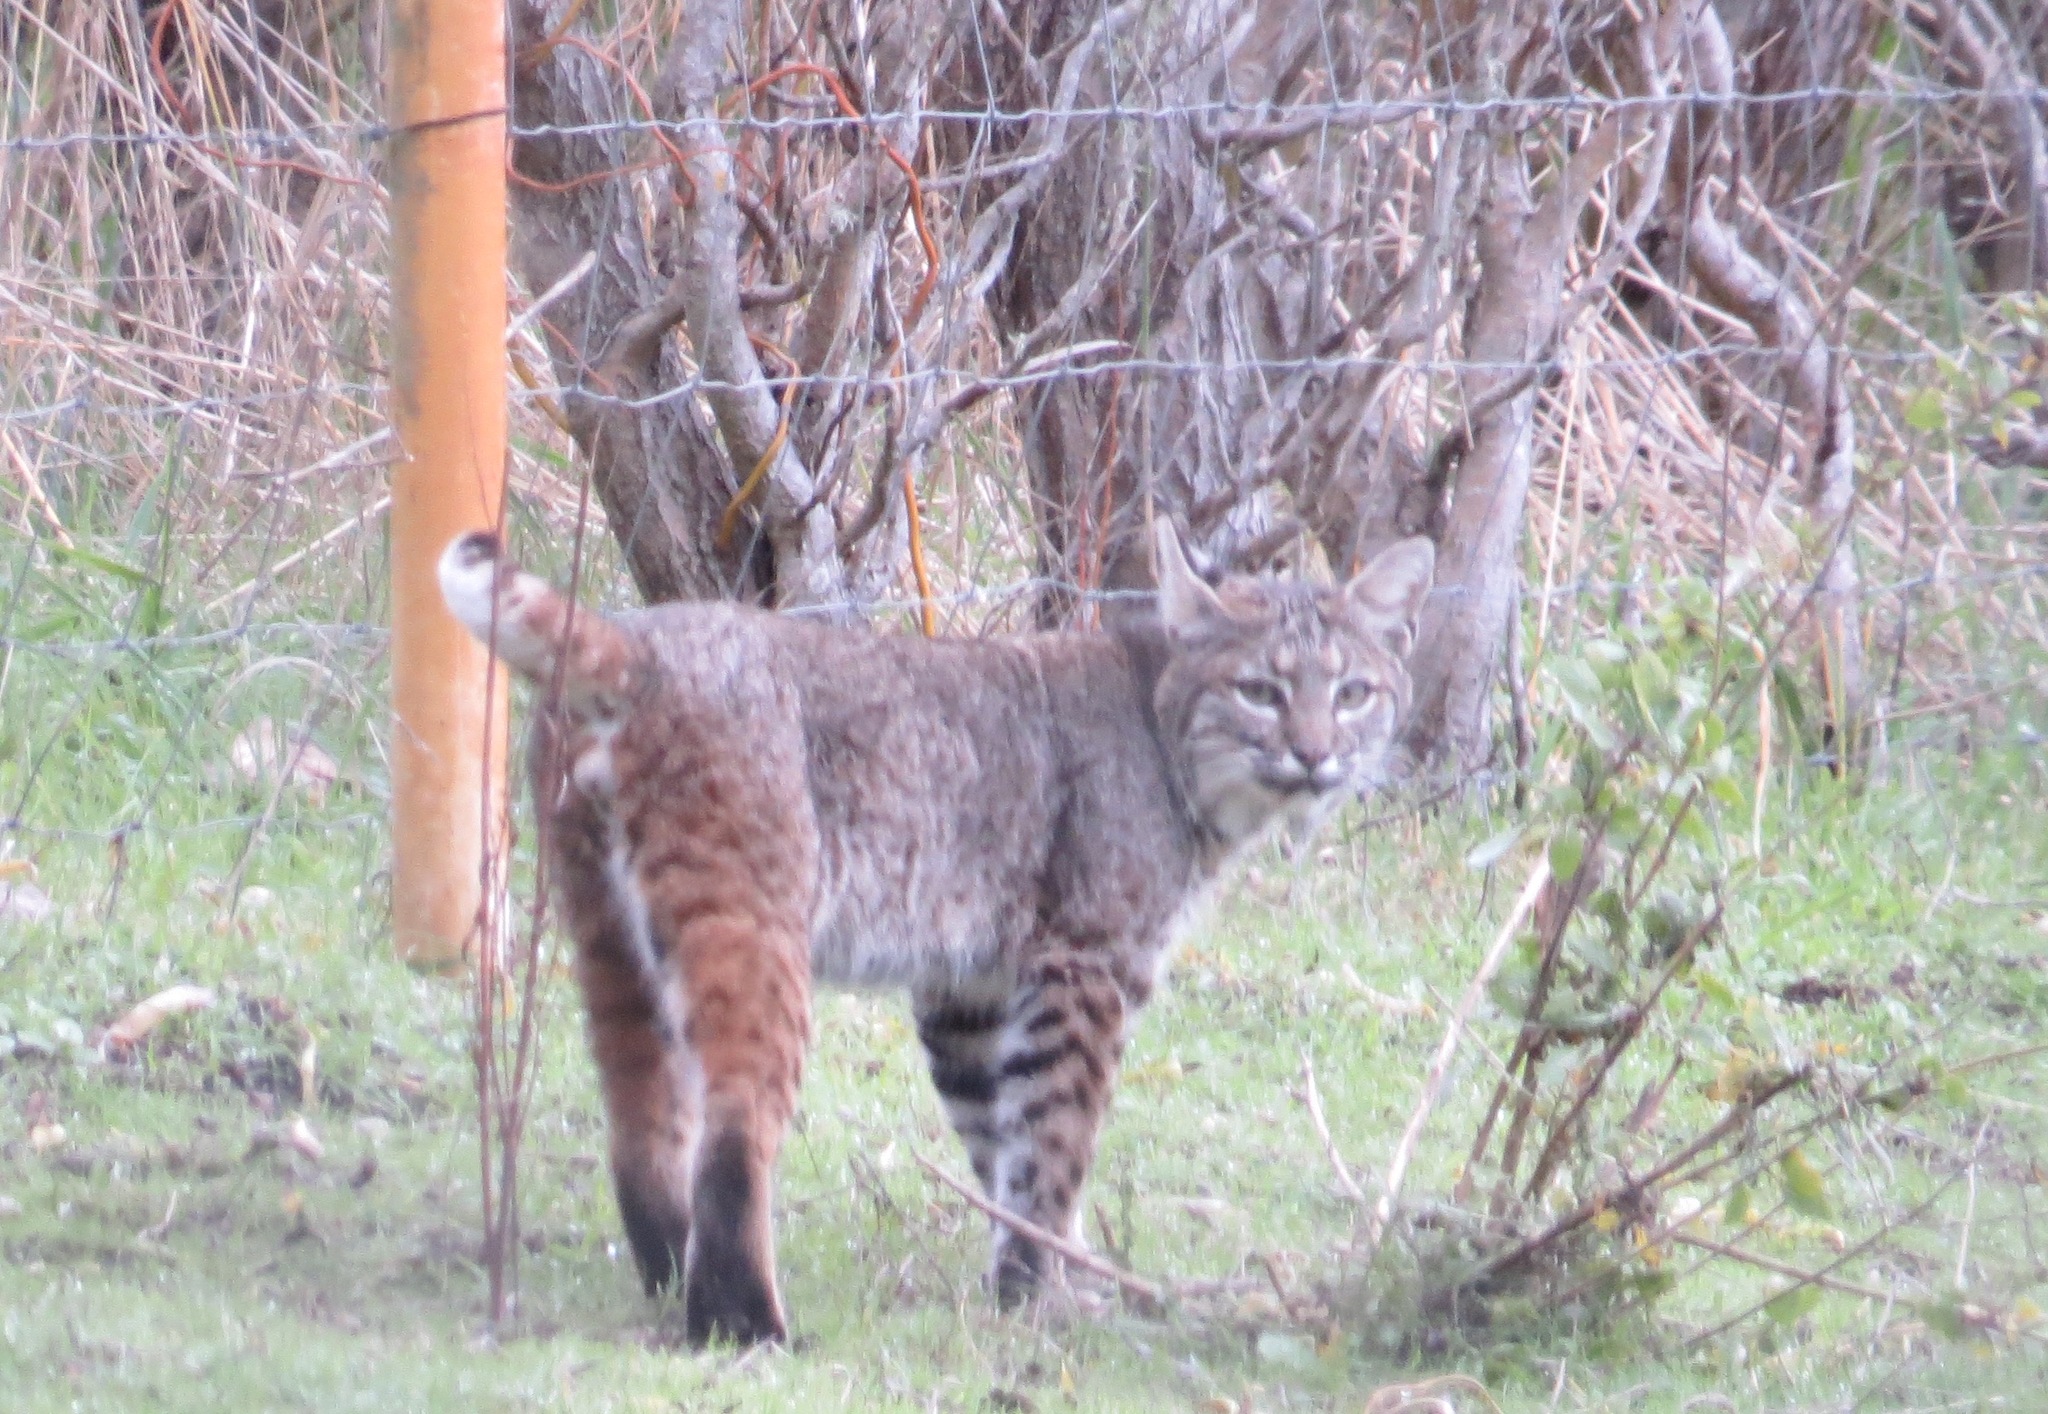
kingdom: Animalia
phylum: Chordata
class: Mammalia
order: Carnivora
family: Felidae
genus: Lynx
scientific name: Lynx rufus
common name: Bobcat
